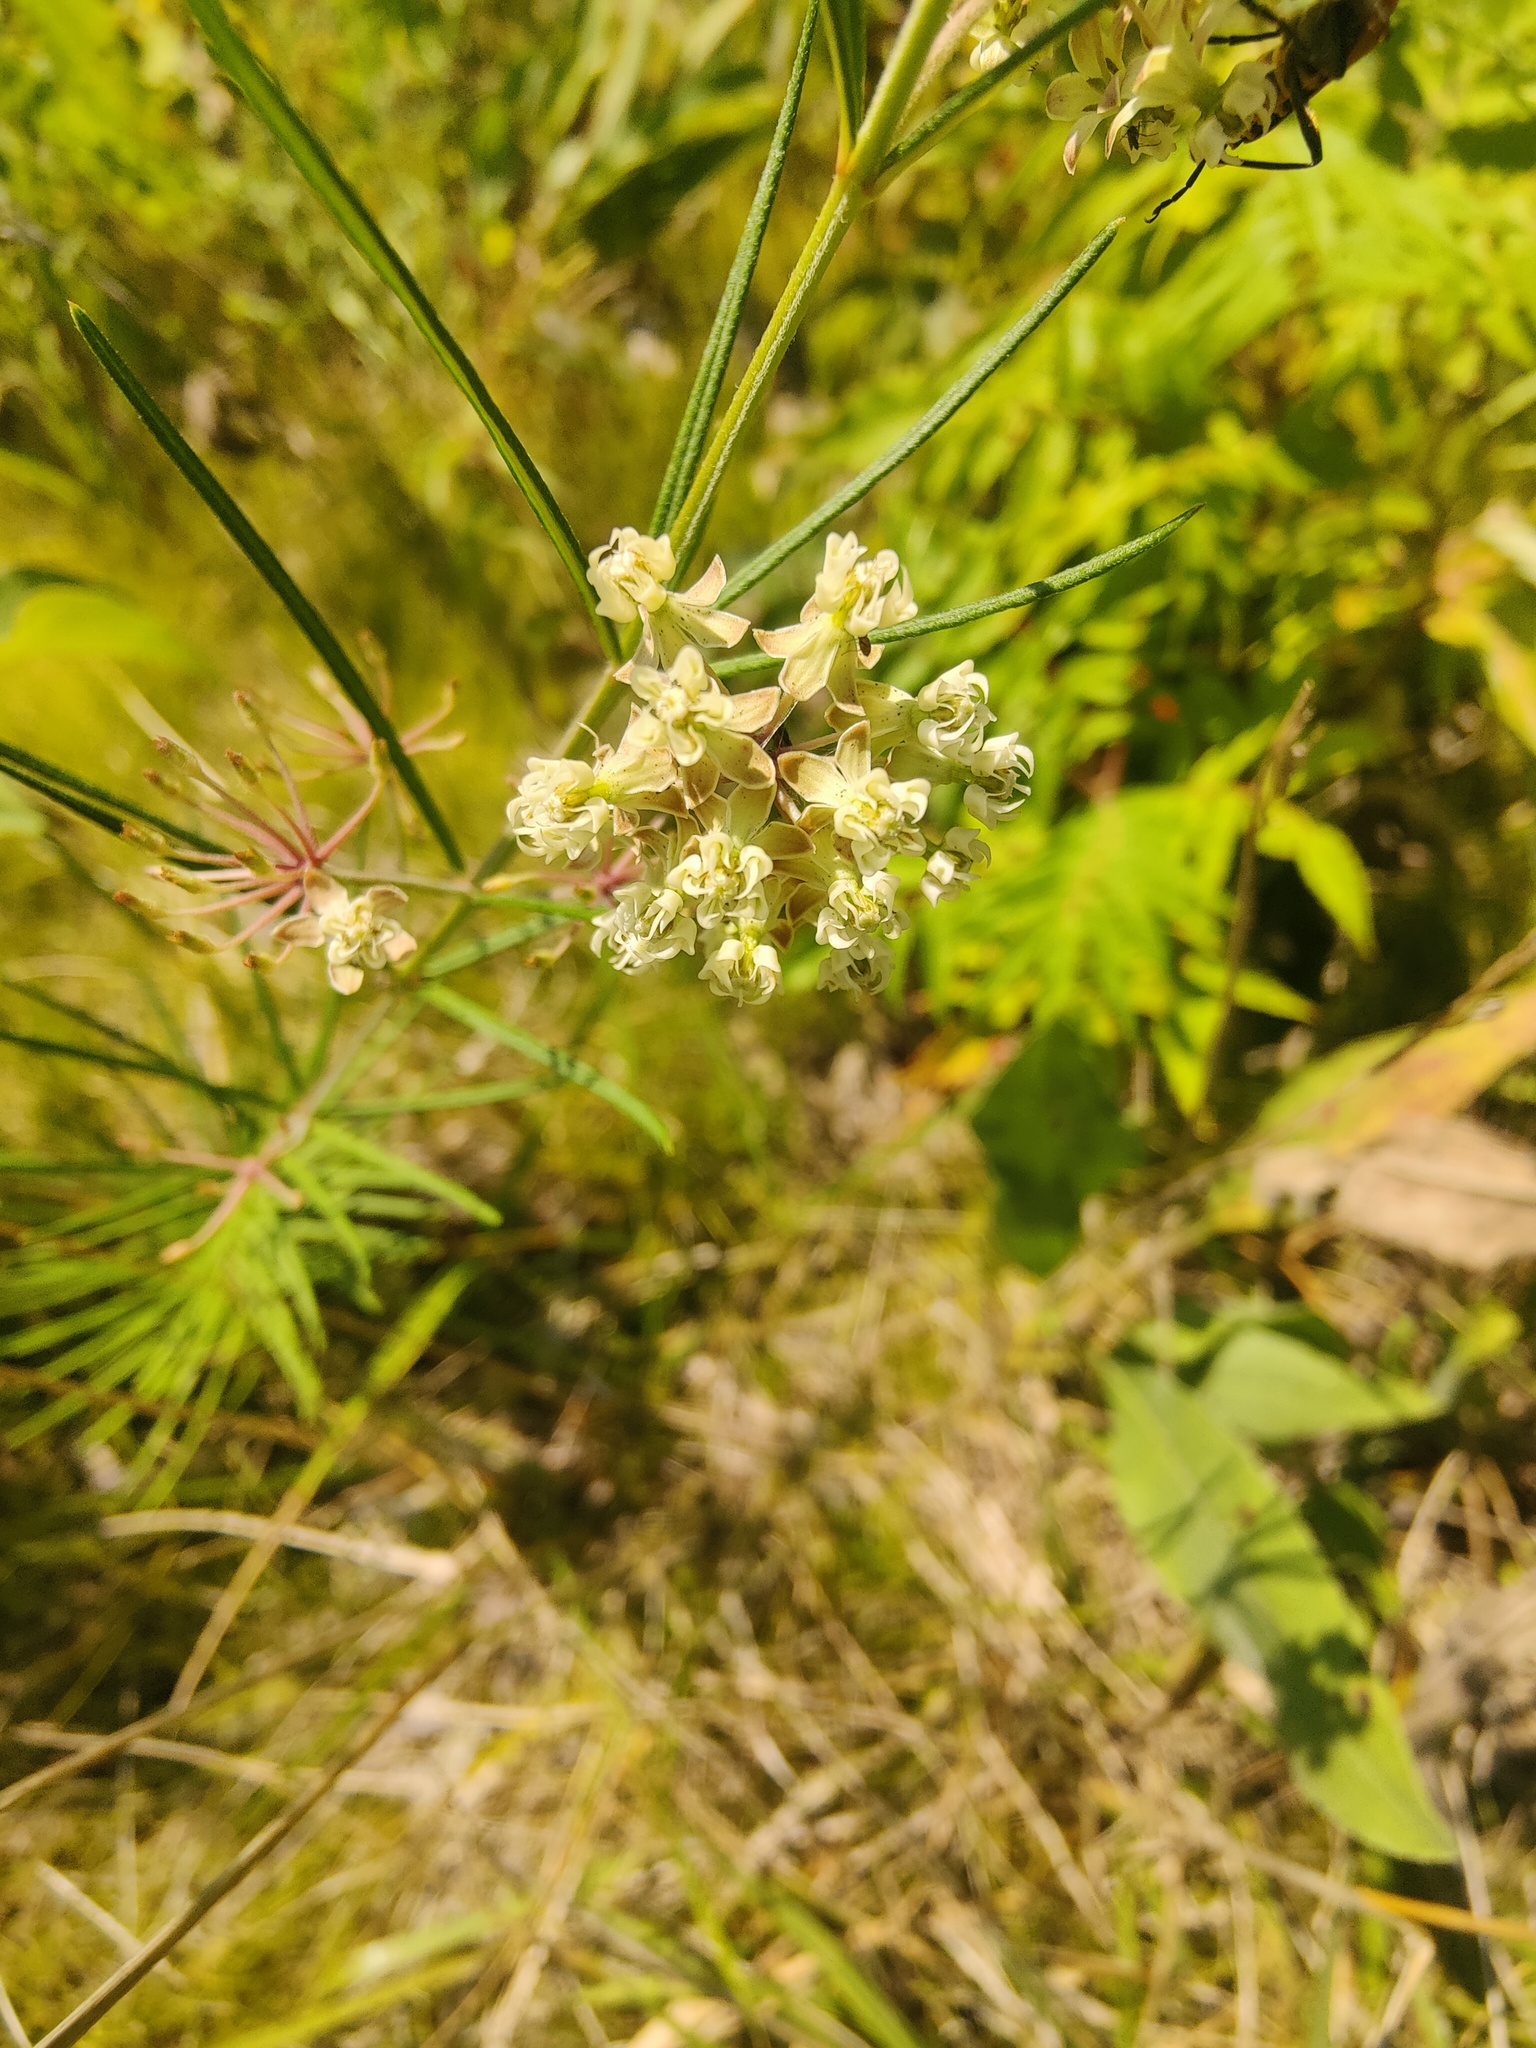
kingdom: Plantae
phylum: Tracheophyta
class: Magnoliopsida
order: Gentianales
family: Apocynaceae
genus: Asclepias
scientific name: Asclepias verticillata
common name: Eastern whorled milkweed
